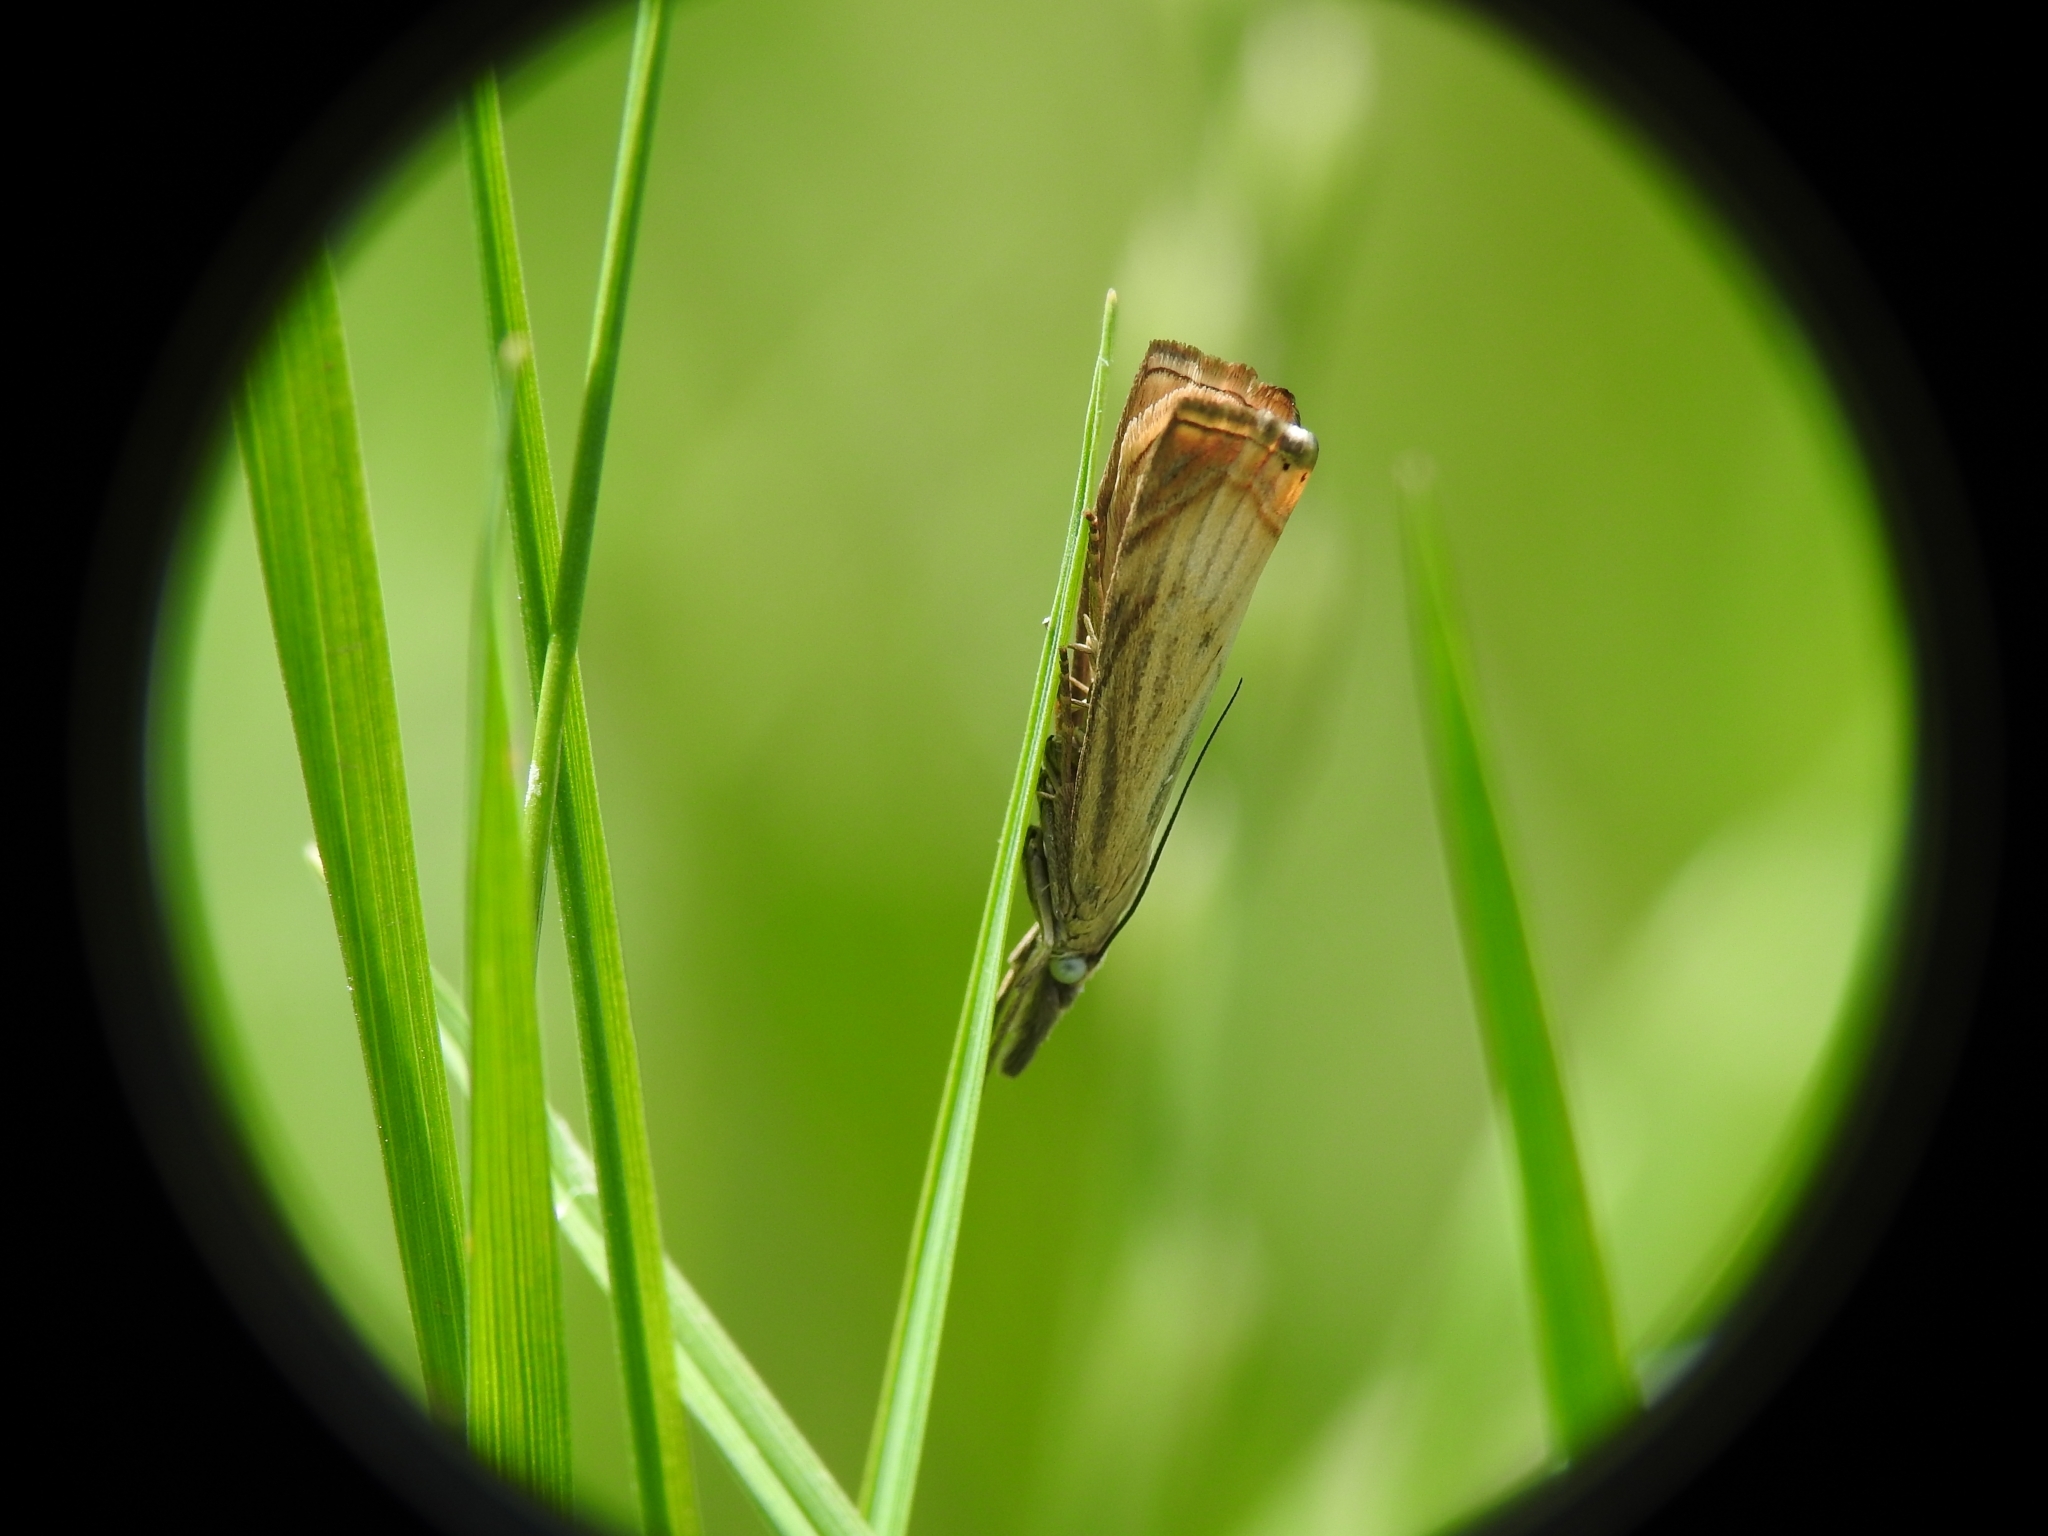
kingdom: Animalia
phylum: Arthropoda
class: Insecta
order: Lepidoptera
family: Crambidae
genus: Chrysoteuchia
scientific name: Chrysoteuchia culmella
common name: Garden grass-veneer
